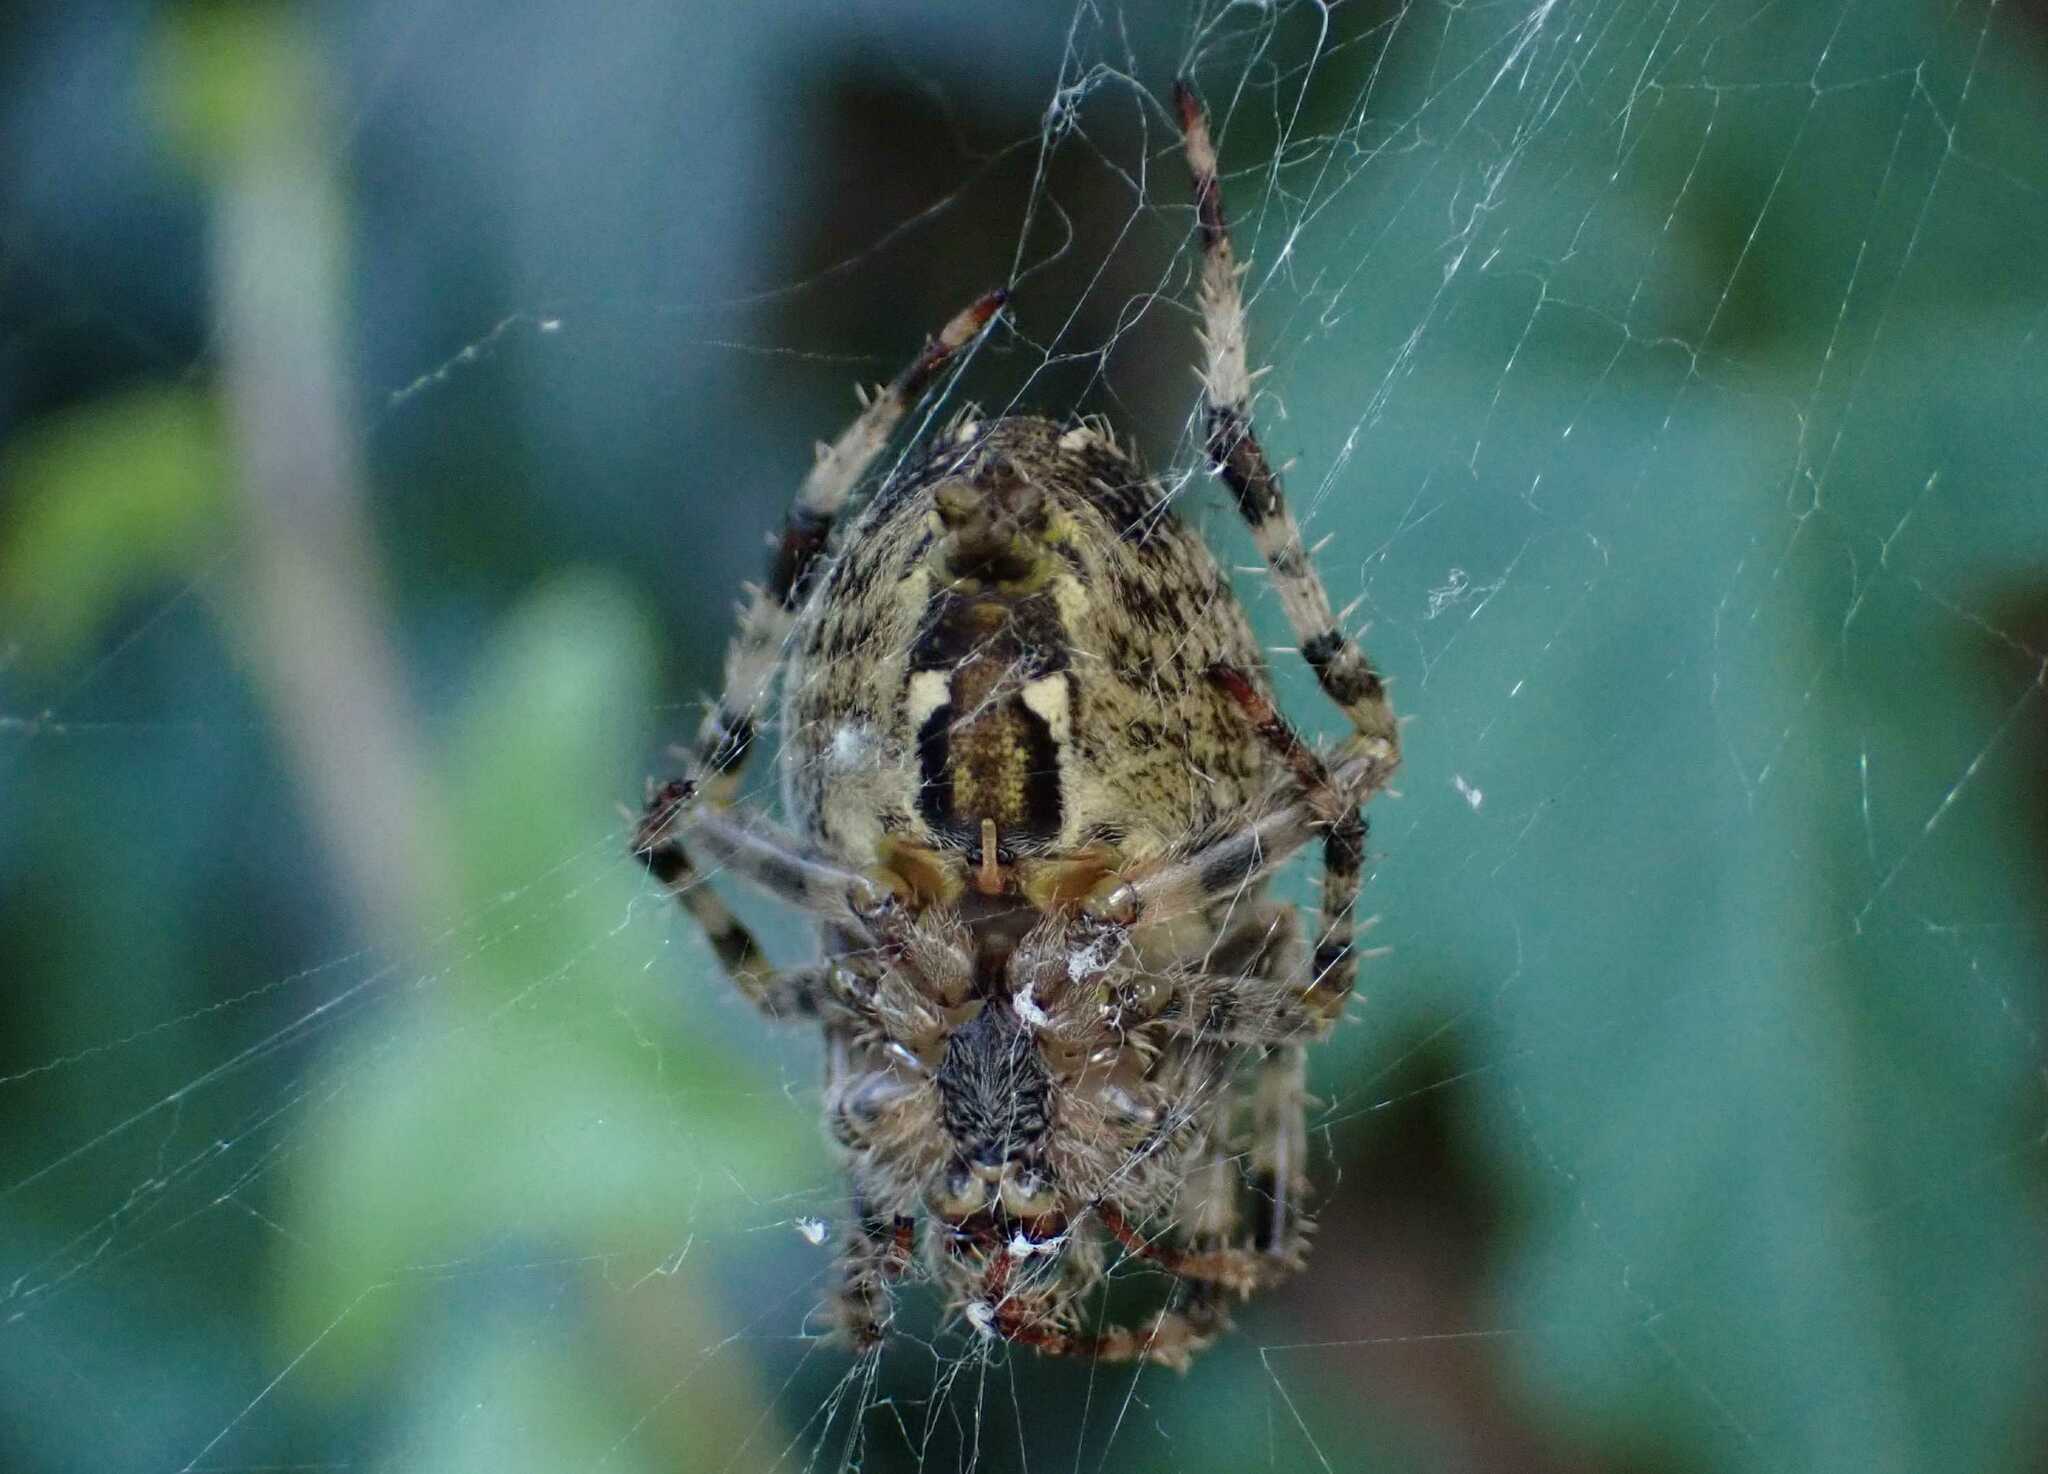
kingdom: Animalia
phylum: Arthropoda
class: Arachnida
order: Araneae
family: Araneidae
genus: Araneus
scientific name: Araneus diadematus
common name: Cross orbweaver
